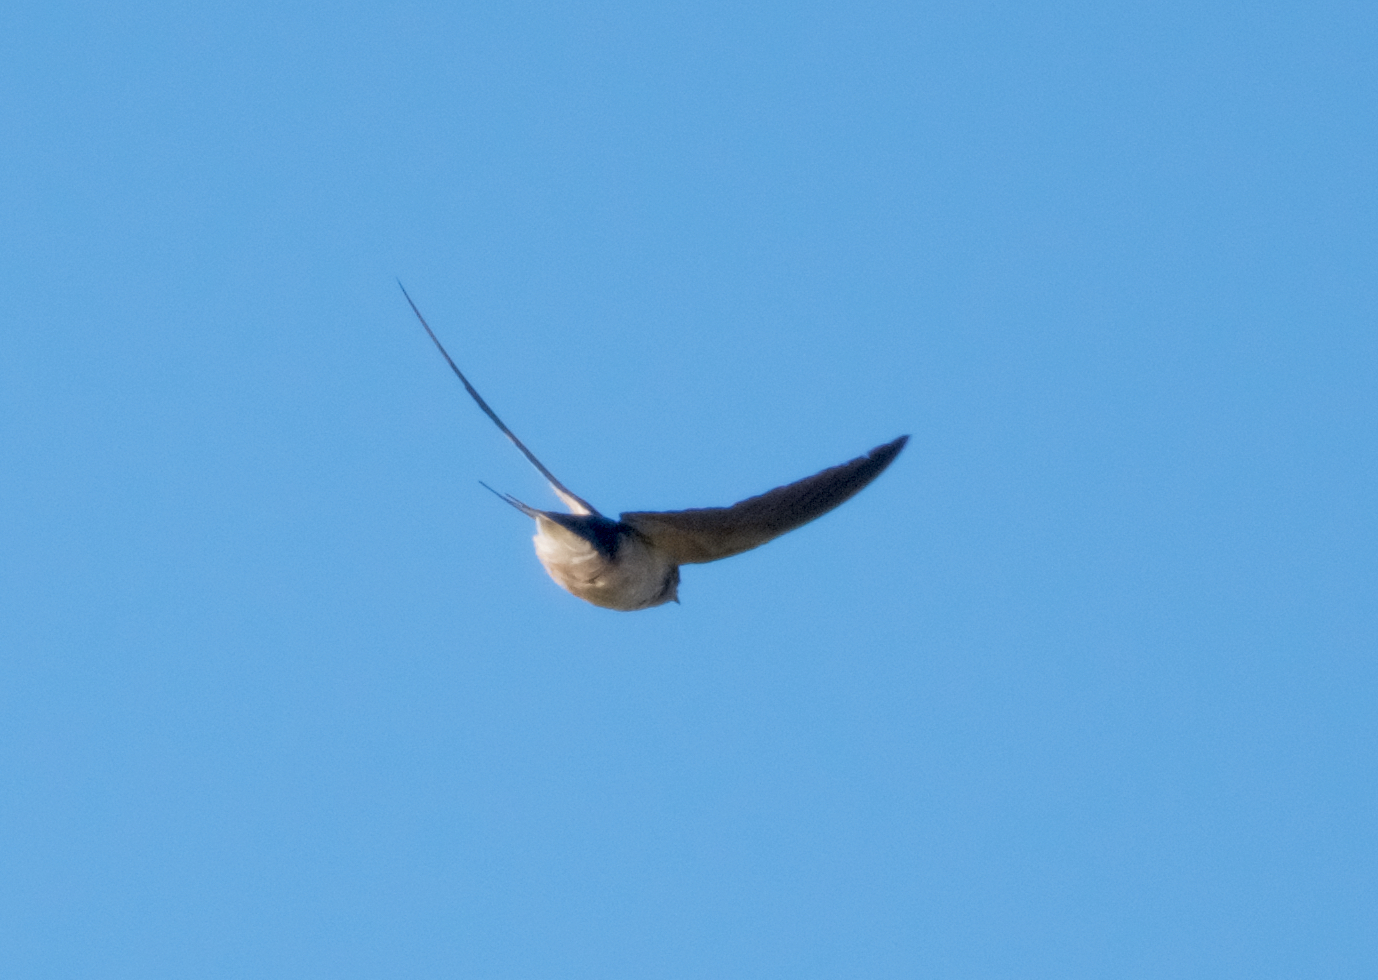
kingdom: Animalia
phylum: Chordata
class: Aves
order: Passeriformes
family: Hirundinidae
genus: Hirundo
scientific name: Hirundo rustica
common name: Barn swallow
